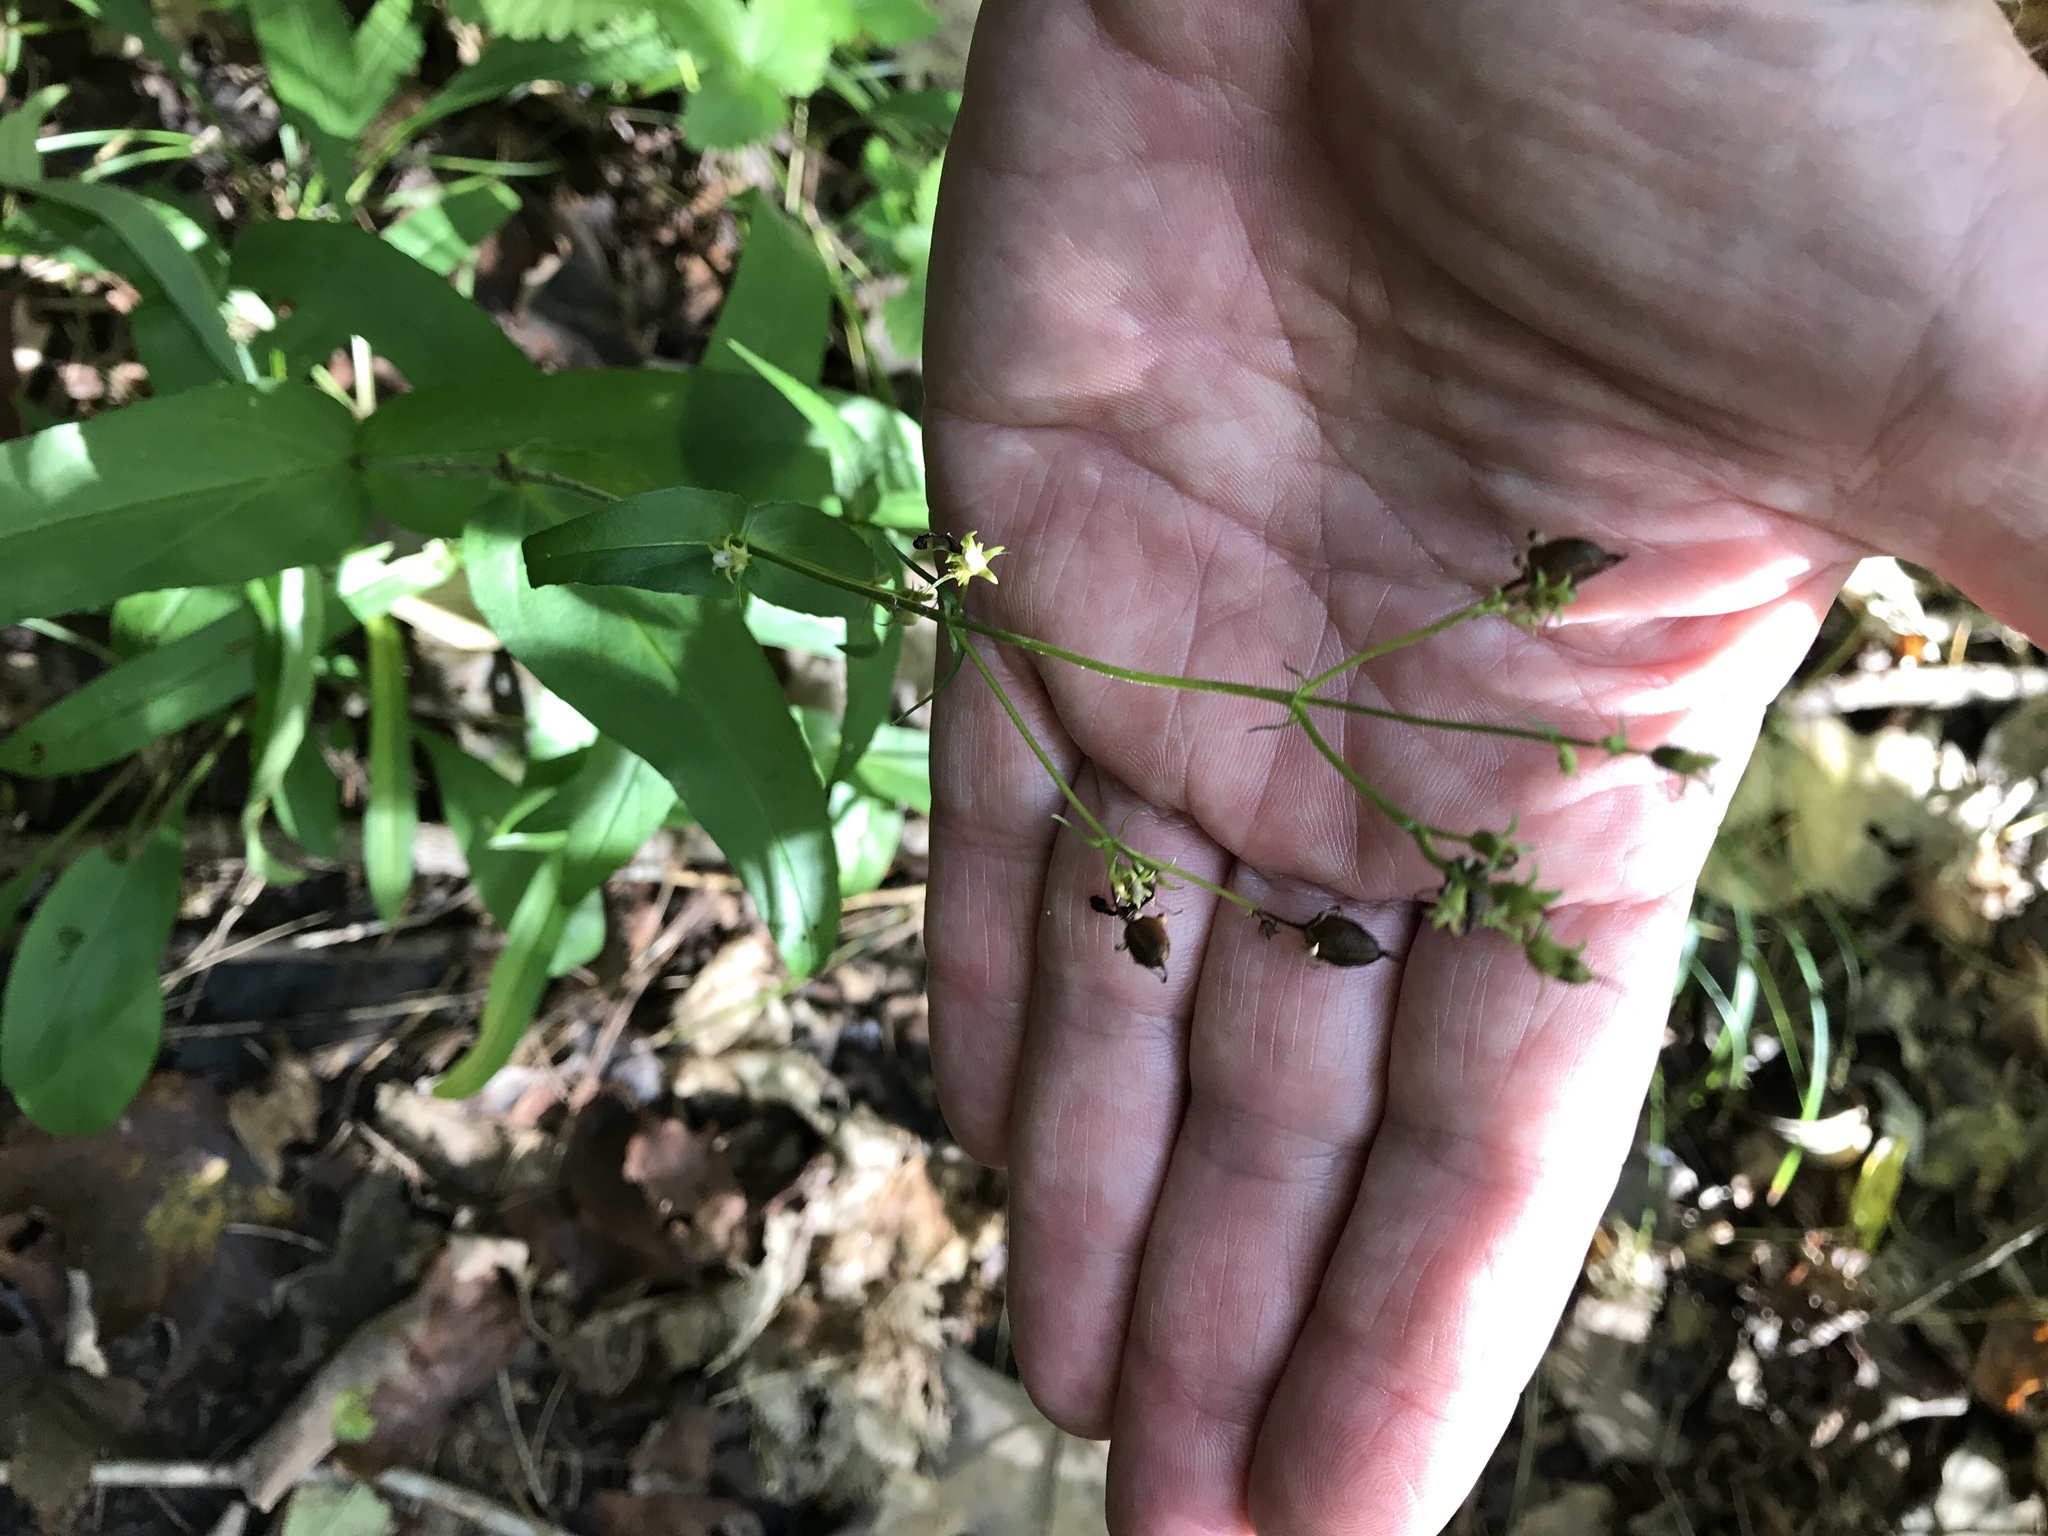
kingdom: Plantae
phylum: Tracheophyta
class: Magnoliopsida
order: Lamiales
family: Plantaginaceae
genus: Penstemon
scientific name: Penstemon digitalis
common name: Foxglove beardtongue
